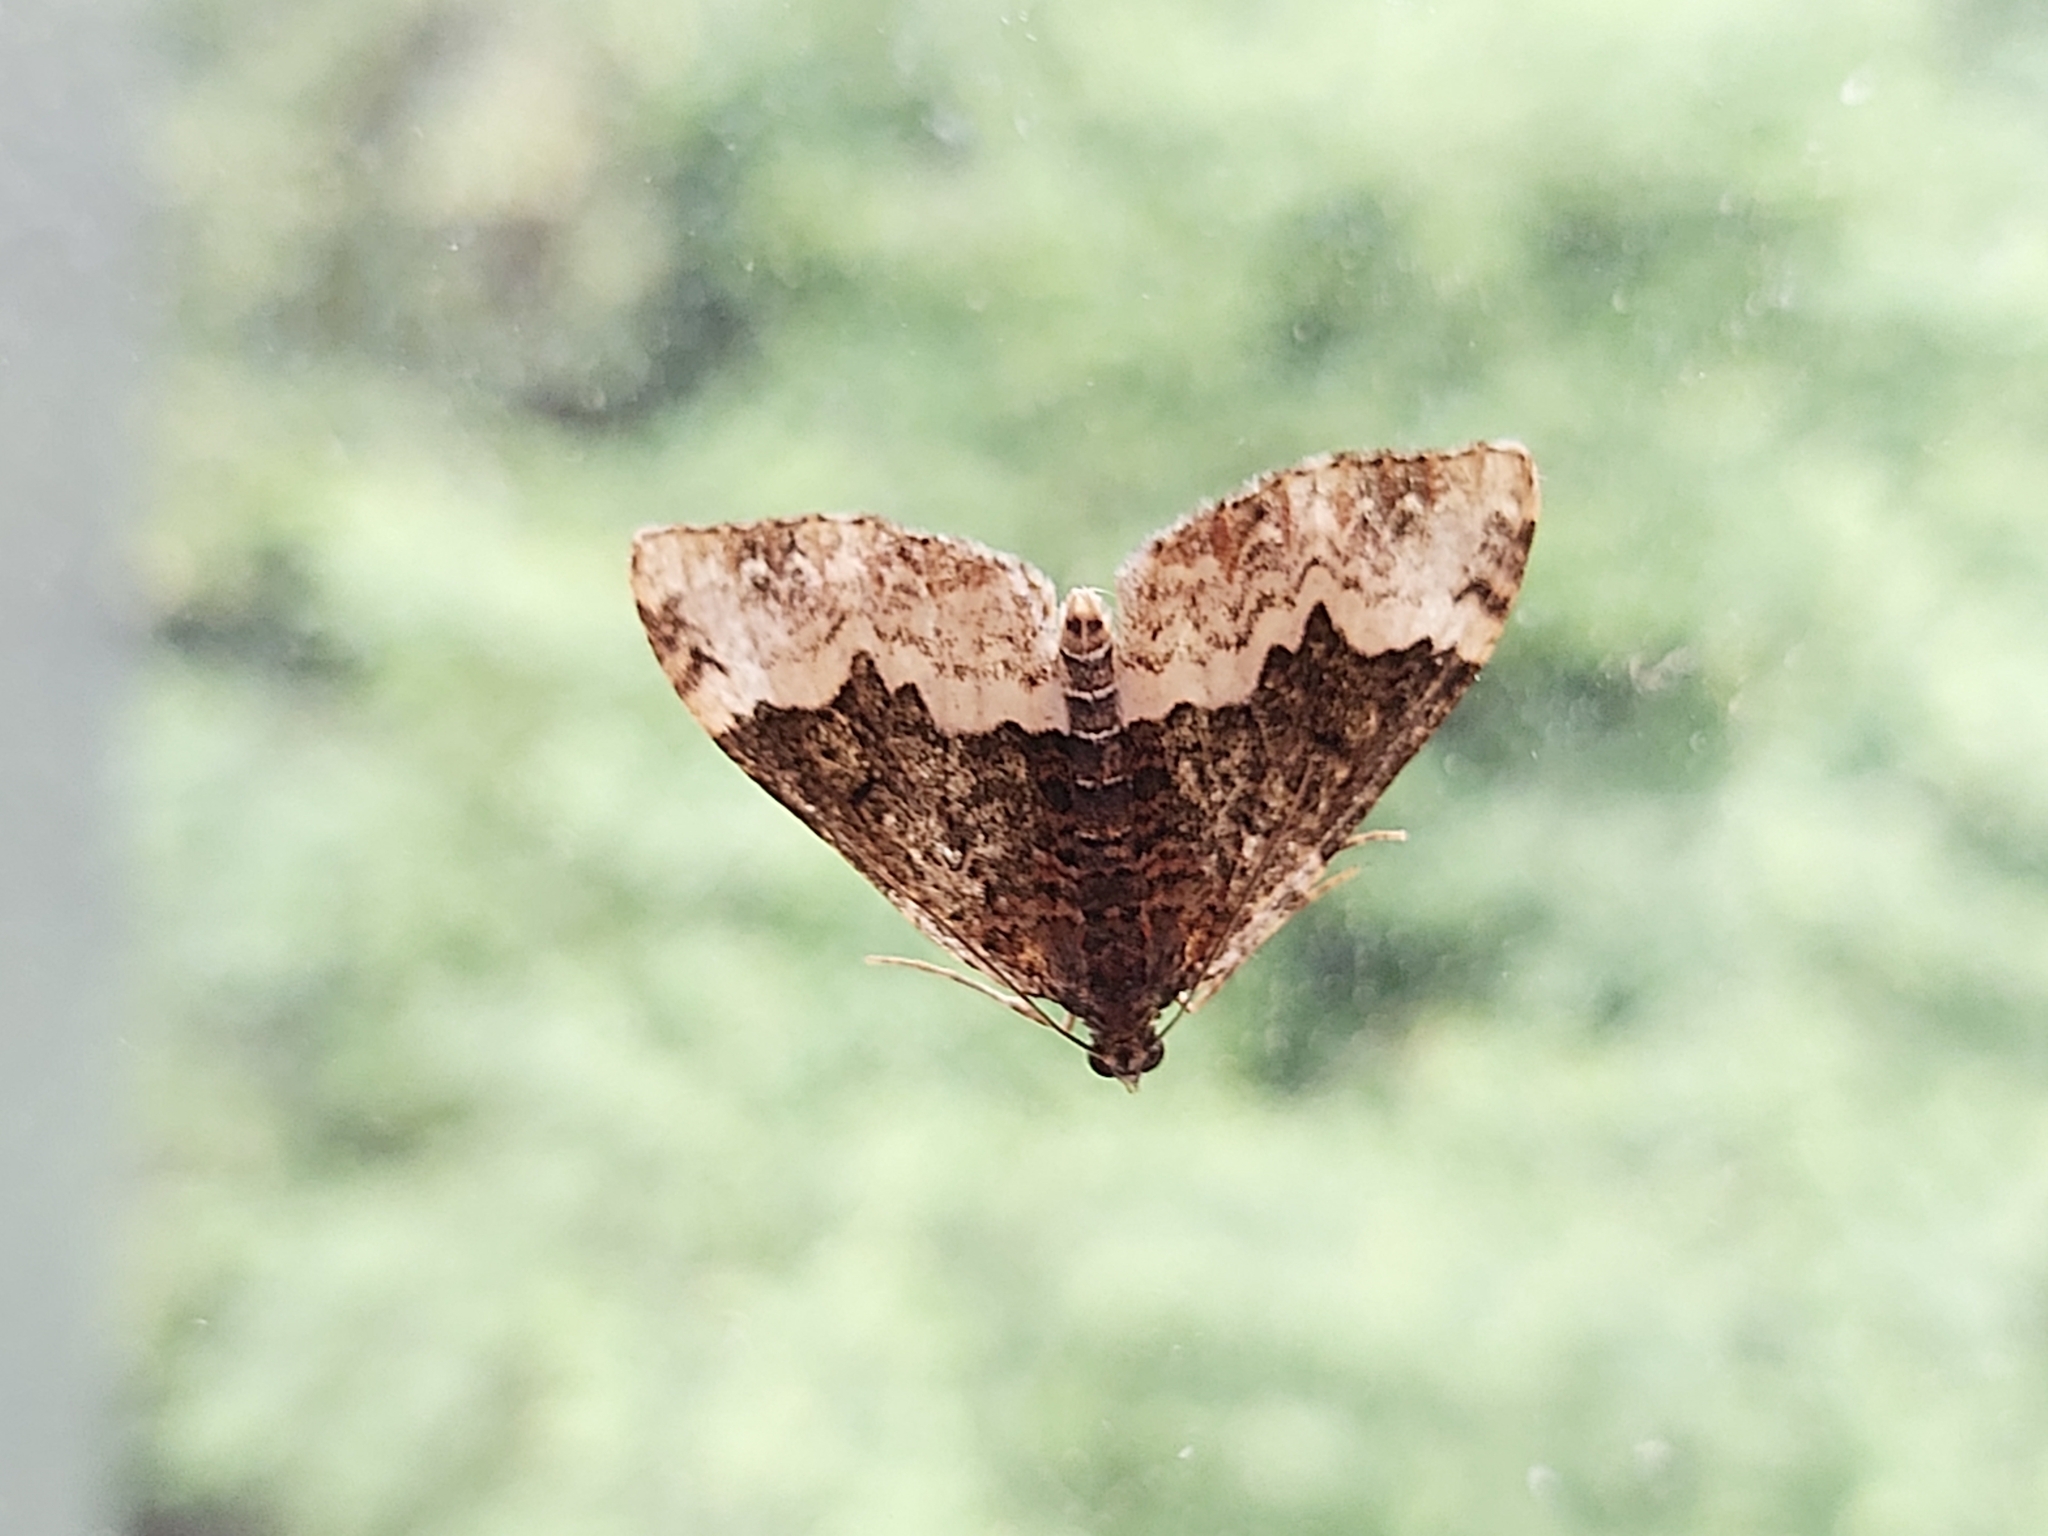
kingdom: Animalia
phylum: Arthropoda
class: Insecta
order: Lepidoptera
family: Geometridae
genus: Euphyia
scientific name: Euphyia biangulata
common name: Cloaked carpet
